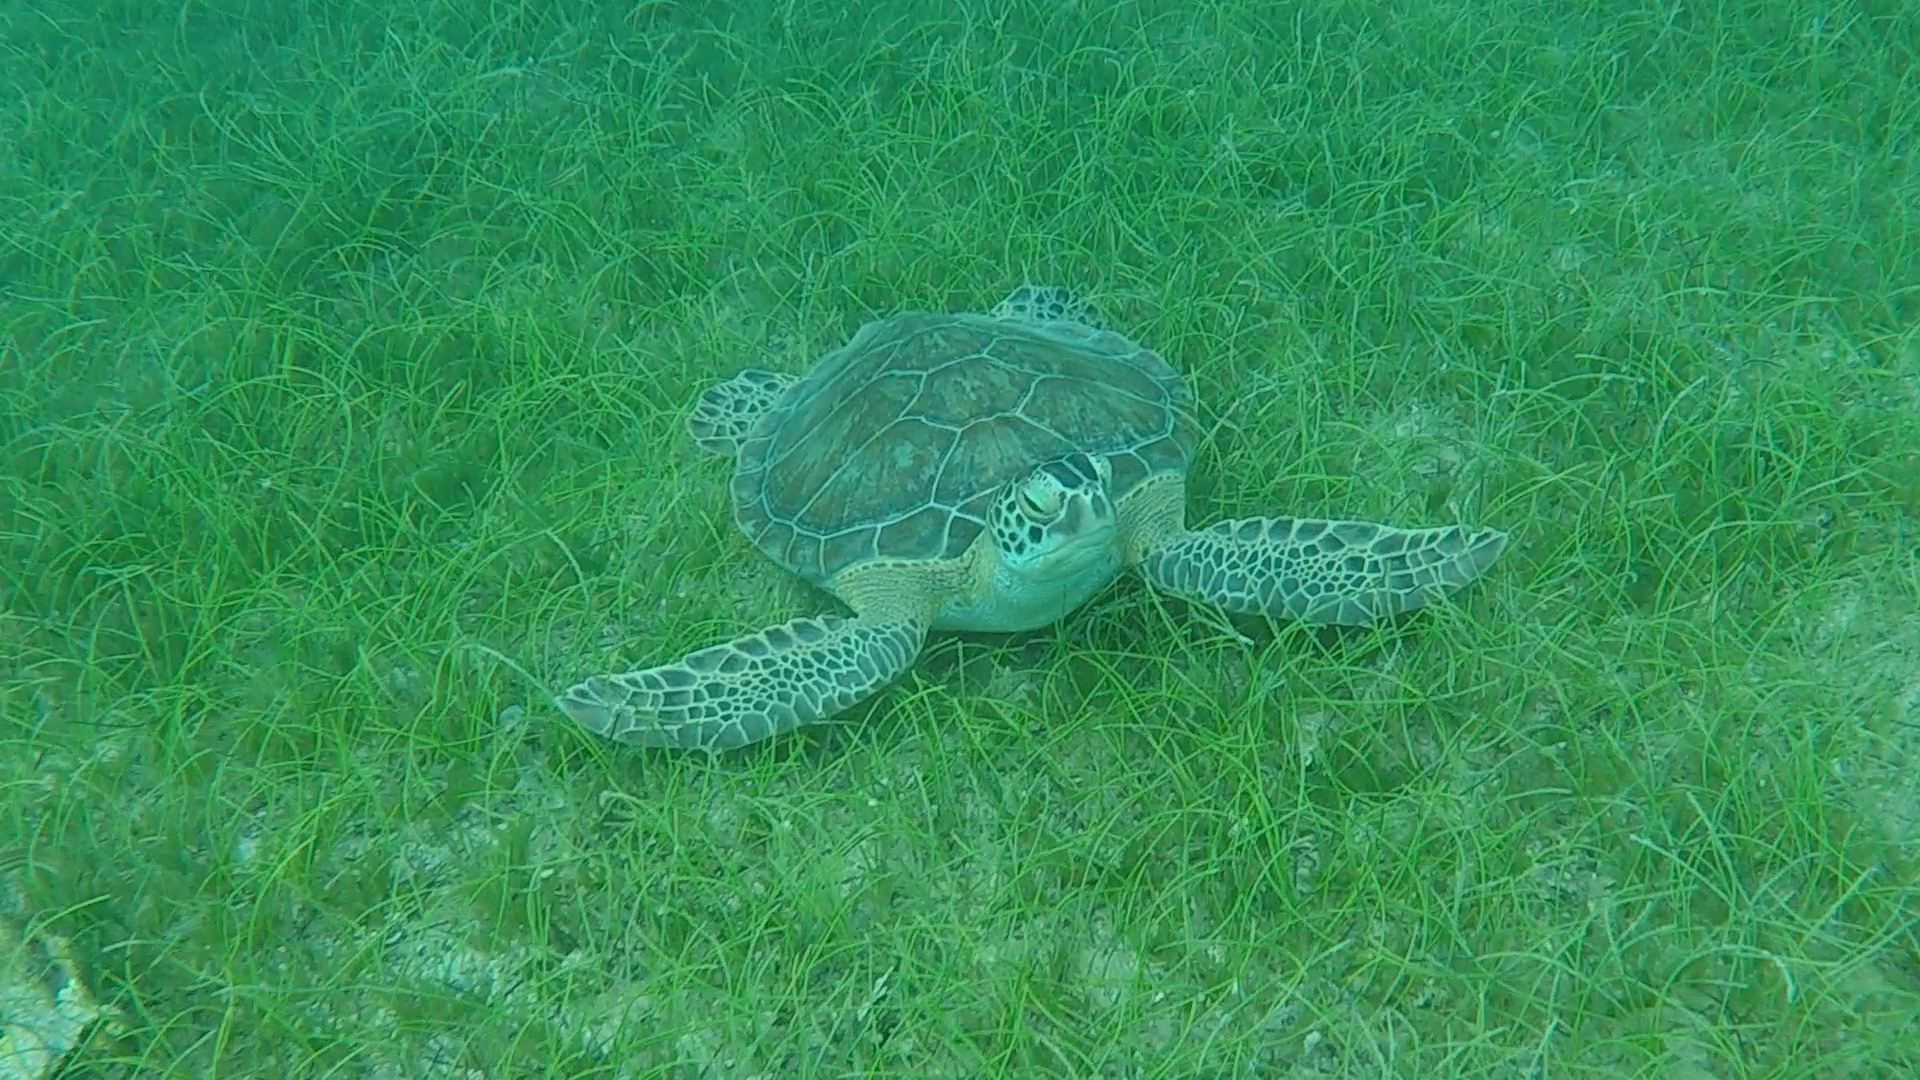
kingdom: Animalia
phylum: Chordata
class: Testudines
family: Cheloniidae
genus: Chelonia
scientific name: Chelonia mydas
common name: Green turtle
